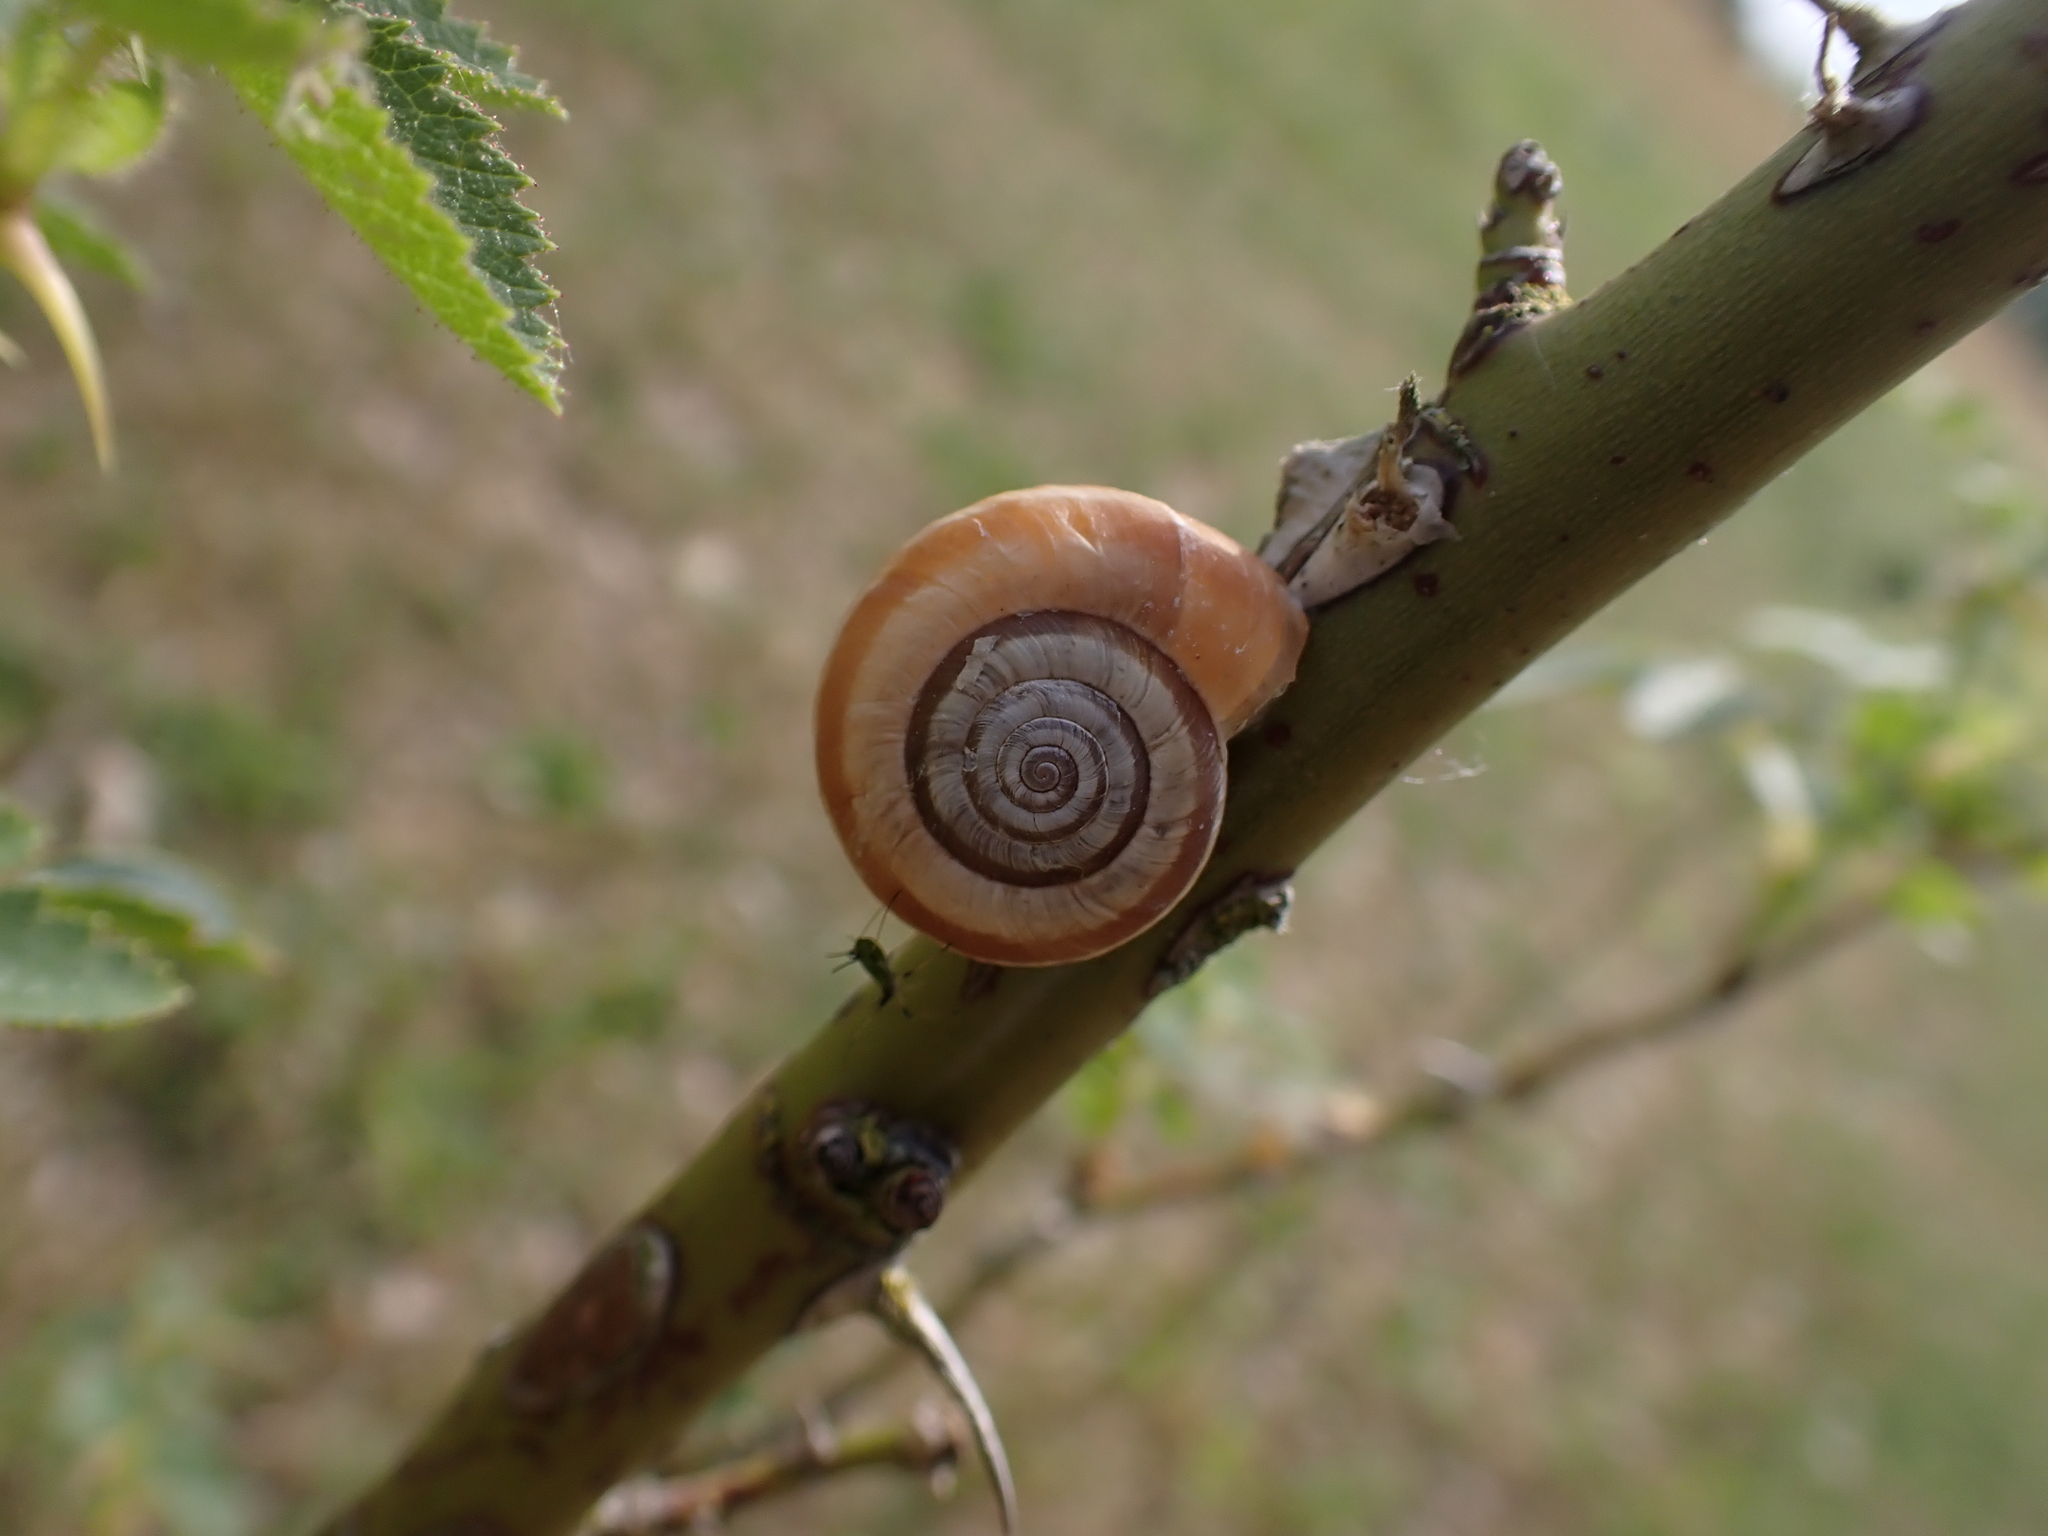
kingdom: Animalia
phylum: Mollusca
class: Gastropoda
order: Stylommatophora
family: Geomitridae
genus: Helicella
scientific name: Helicella itala
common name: Heath snail
